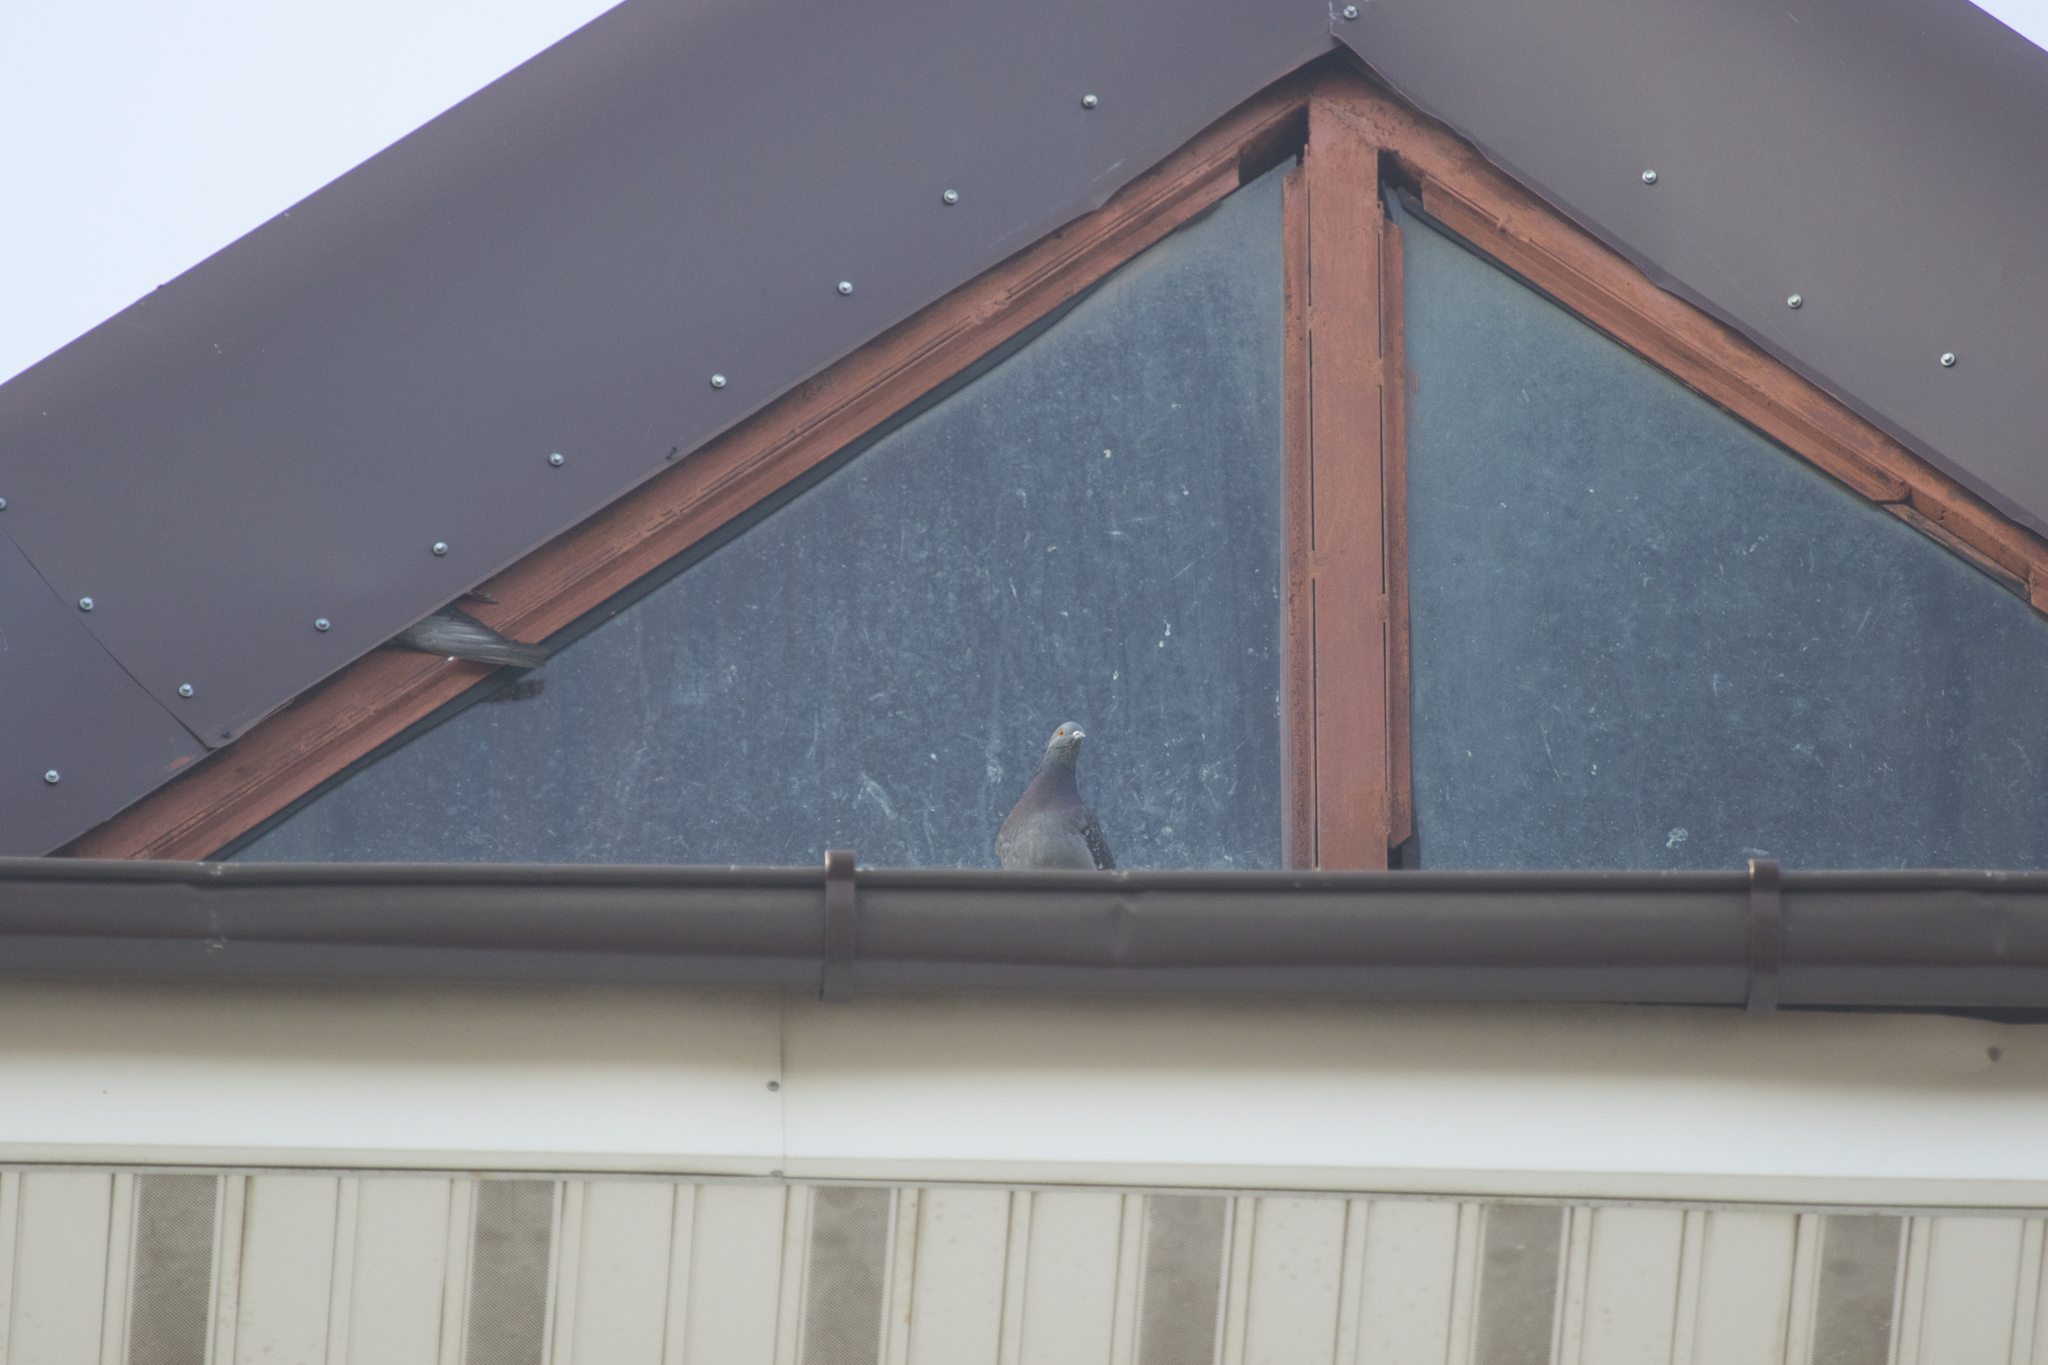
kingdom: Animalia
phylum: Chordata
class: Aves
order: Columbiformes
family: Columbidae
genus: Columba
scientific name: Columba livia
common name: Rock pigeon
